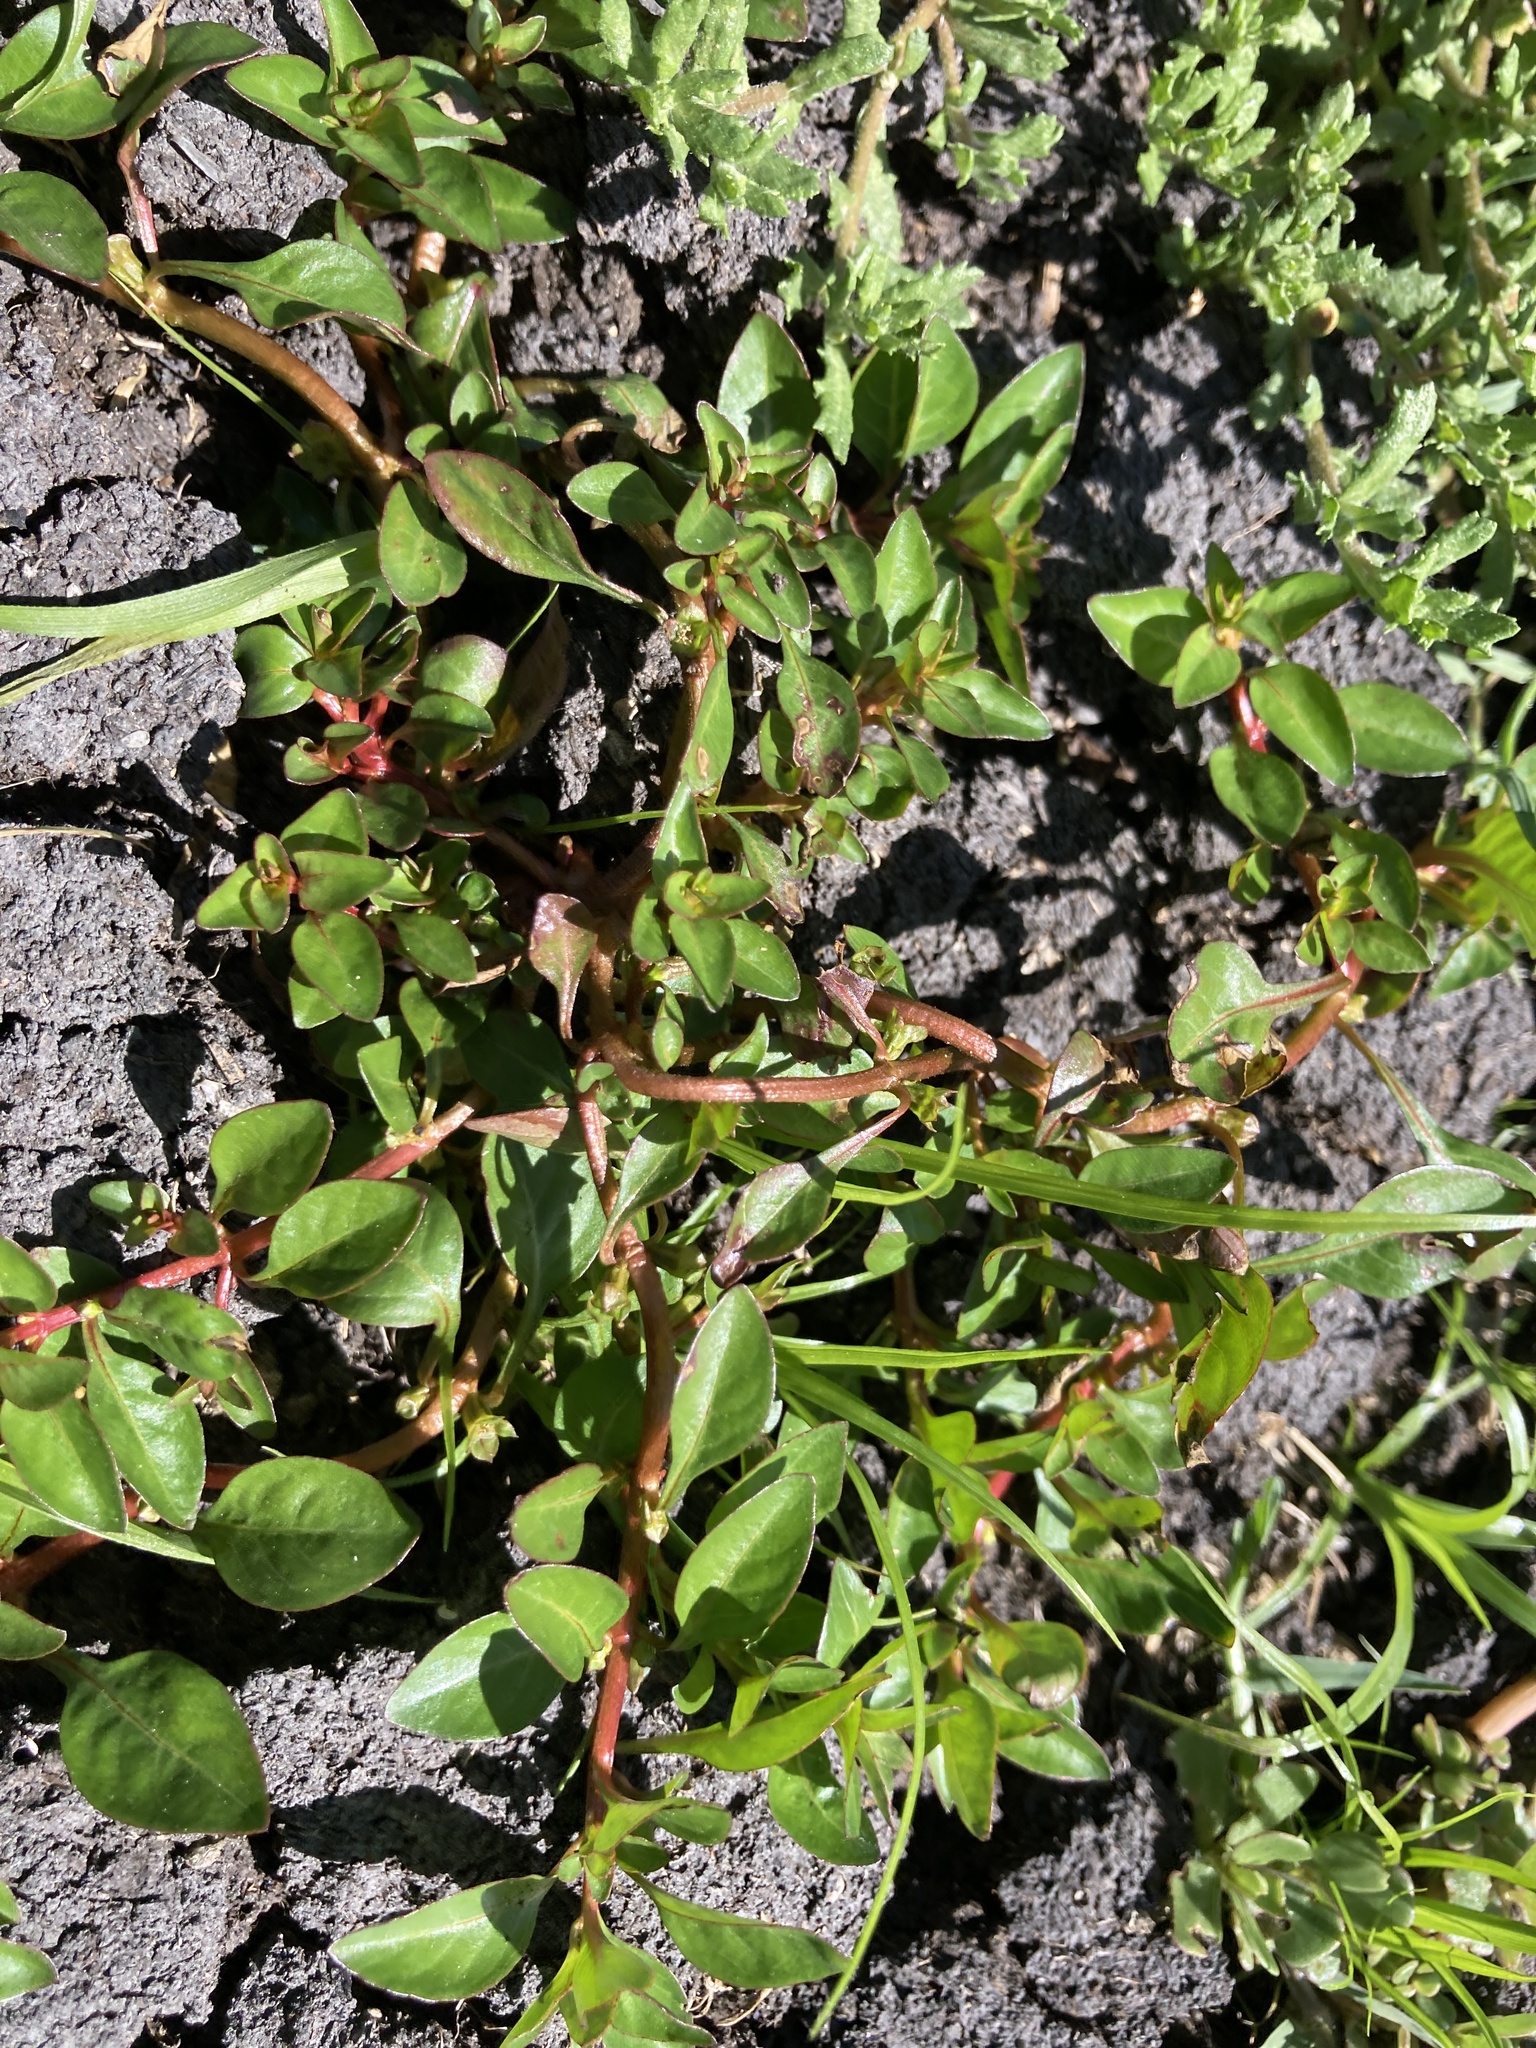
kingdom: Plantae
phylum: Tracheophyta
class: Magnoliopsida
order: Myrtales
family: Onagraceae
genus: Ludwigia
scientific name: Ludwigia palustris
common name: Hampshire-purslane
